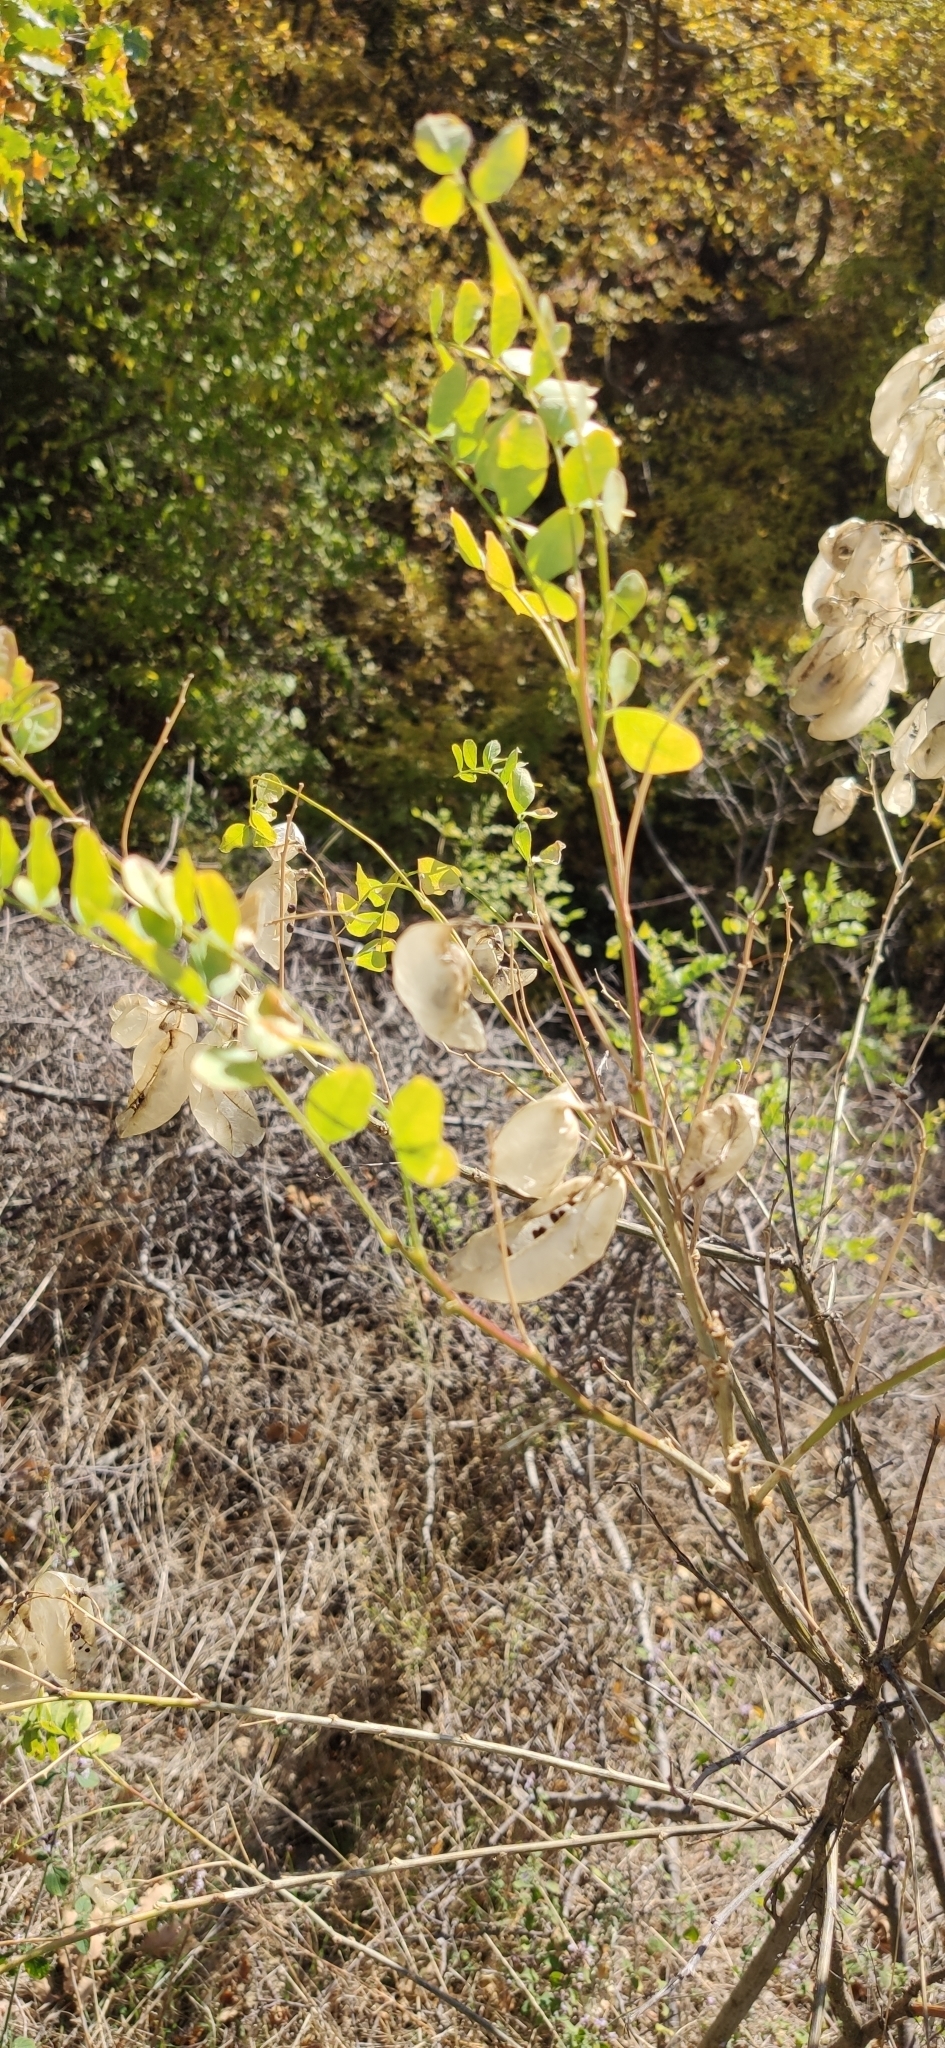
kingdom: Plantae
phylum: Tracheophyta
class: Magnoliopsida
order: Fabales
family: Fabaceae
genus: Colutea
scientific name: Colutea cilicica
